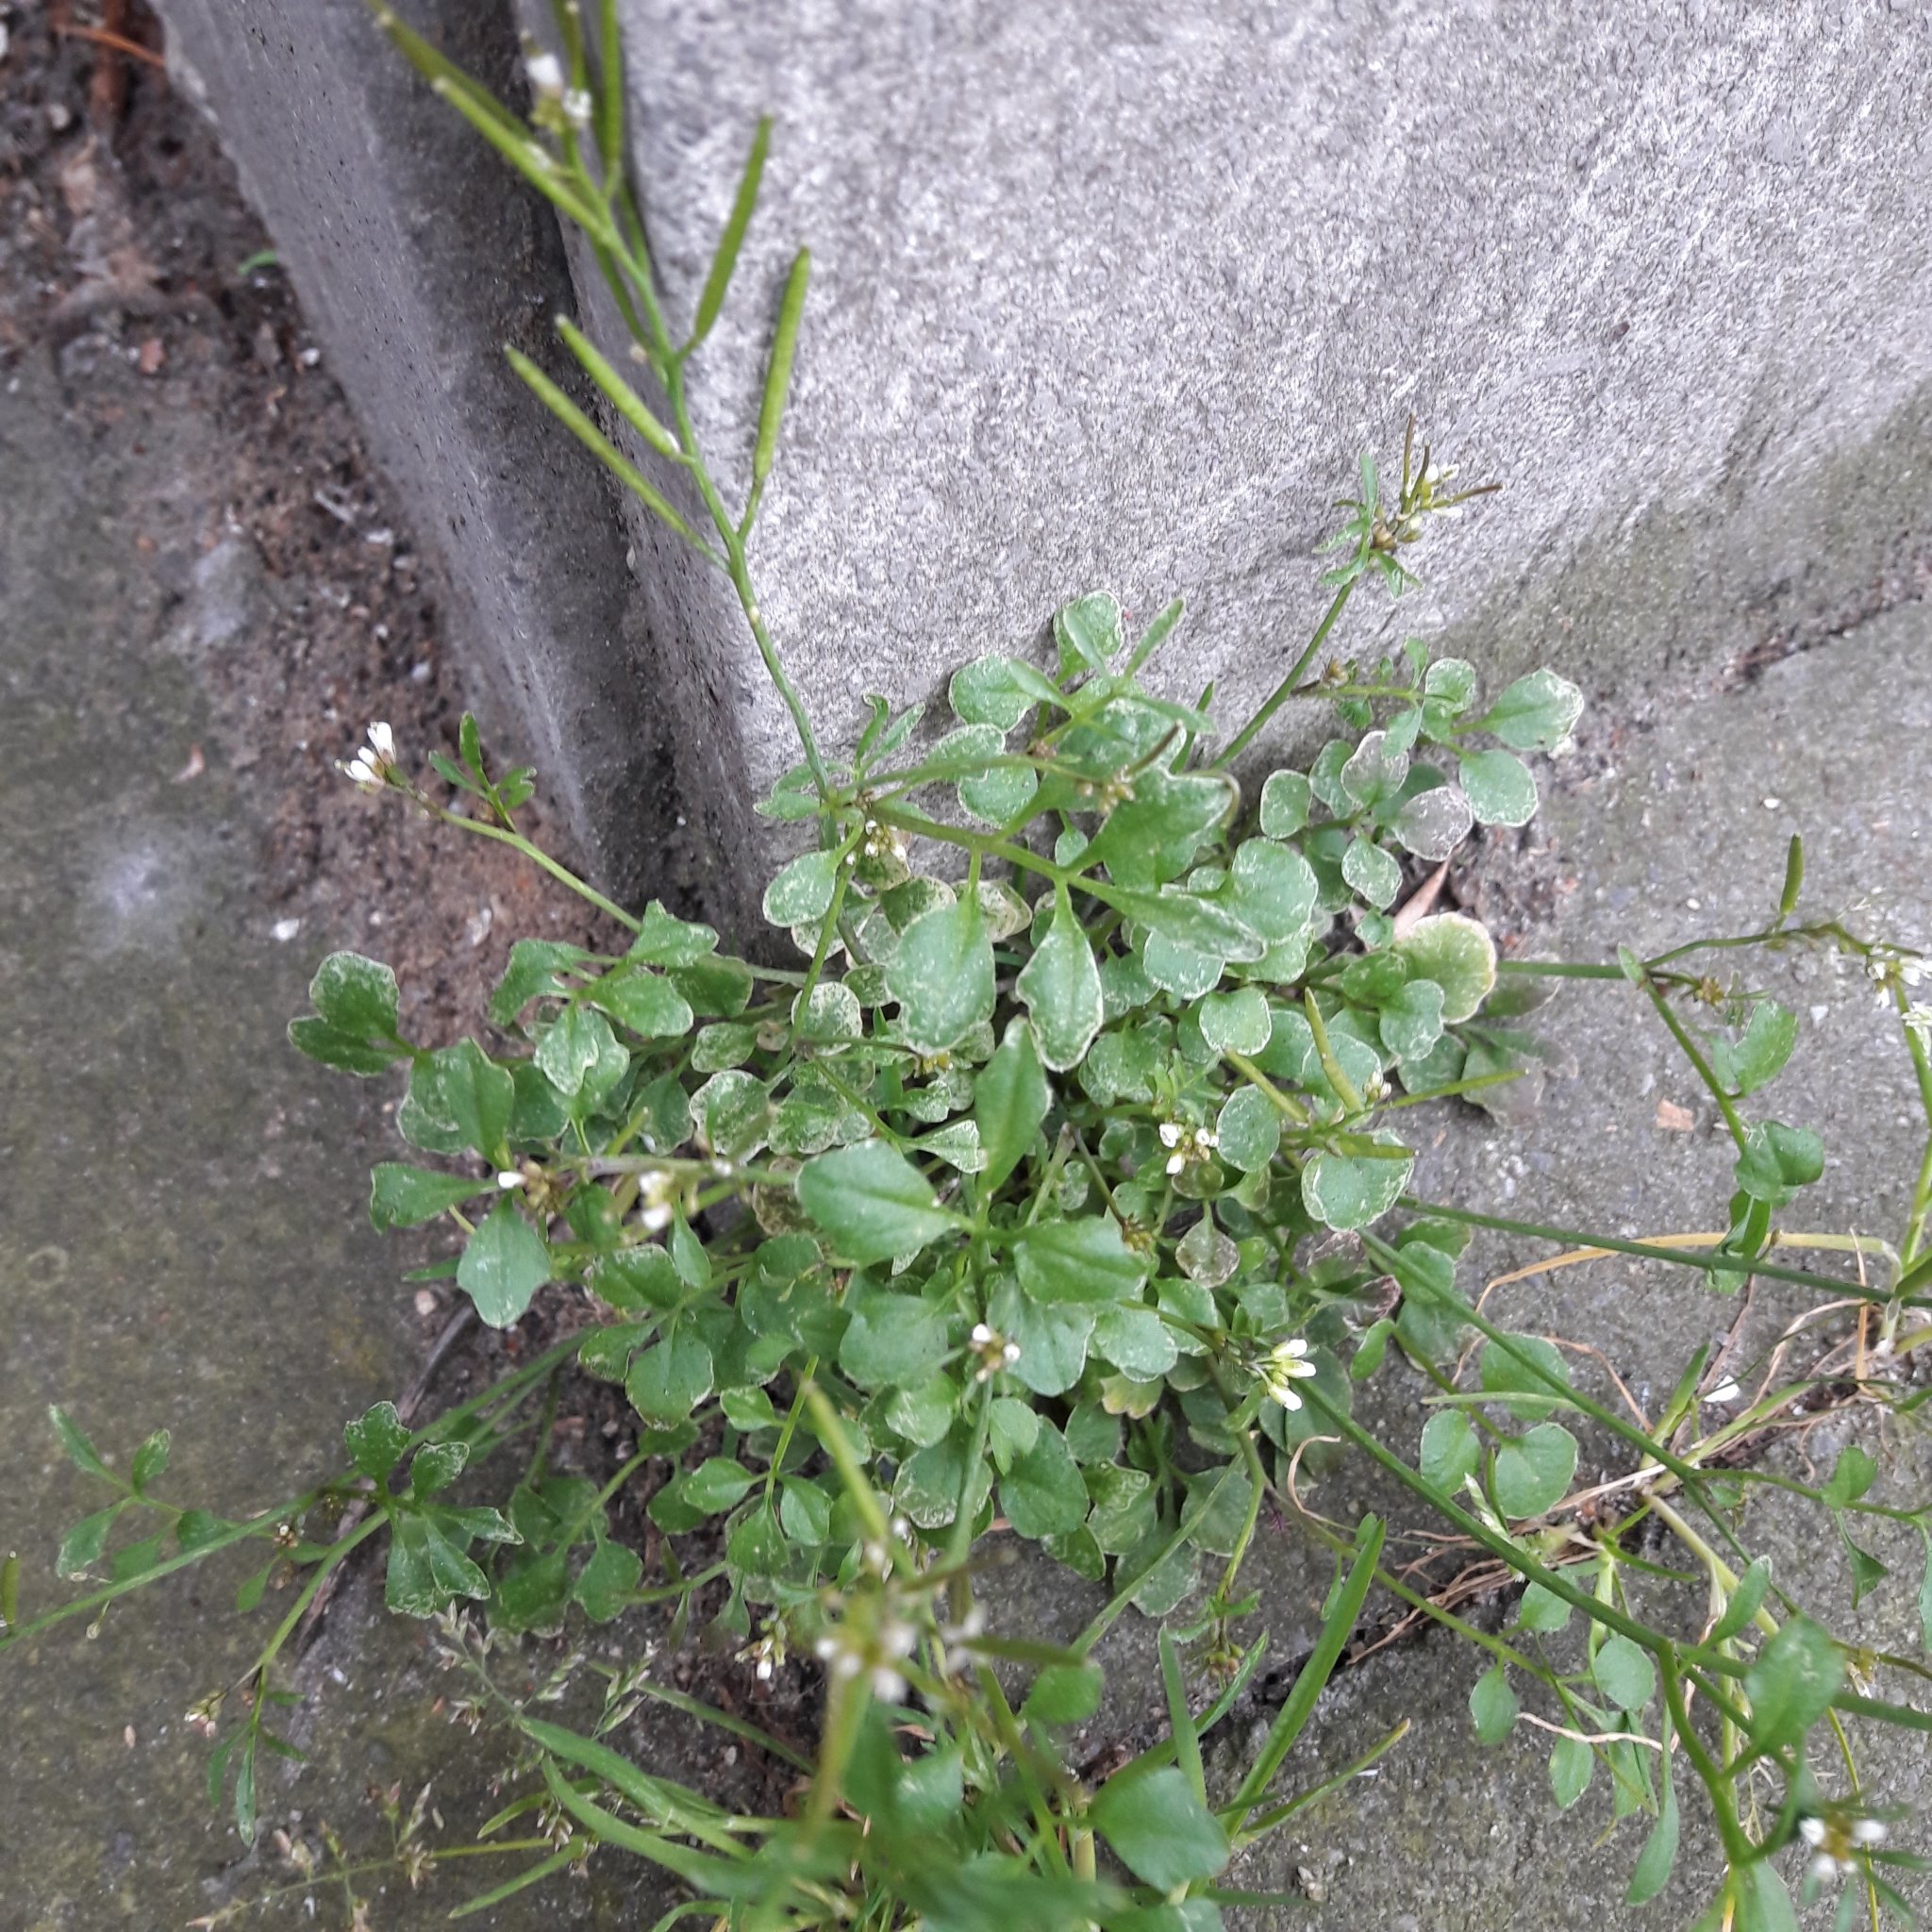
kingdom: Plantae
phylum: Tracheophyta
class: Magnoliopsida
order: Brassicales
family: Brassicaceae
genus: Cardamine
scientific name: Cardamine hirsuta
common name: Hairy bittercress
